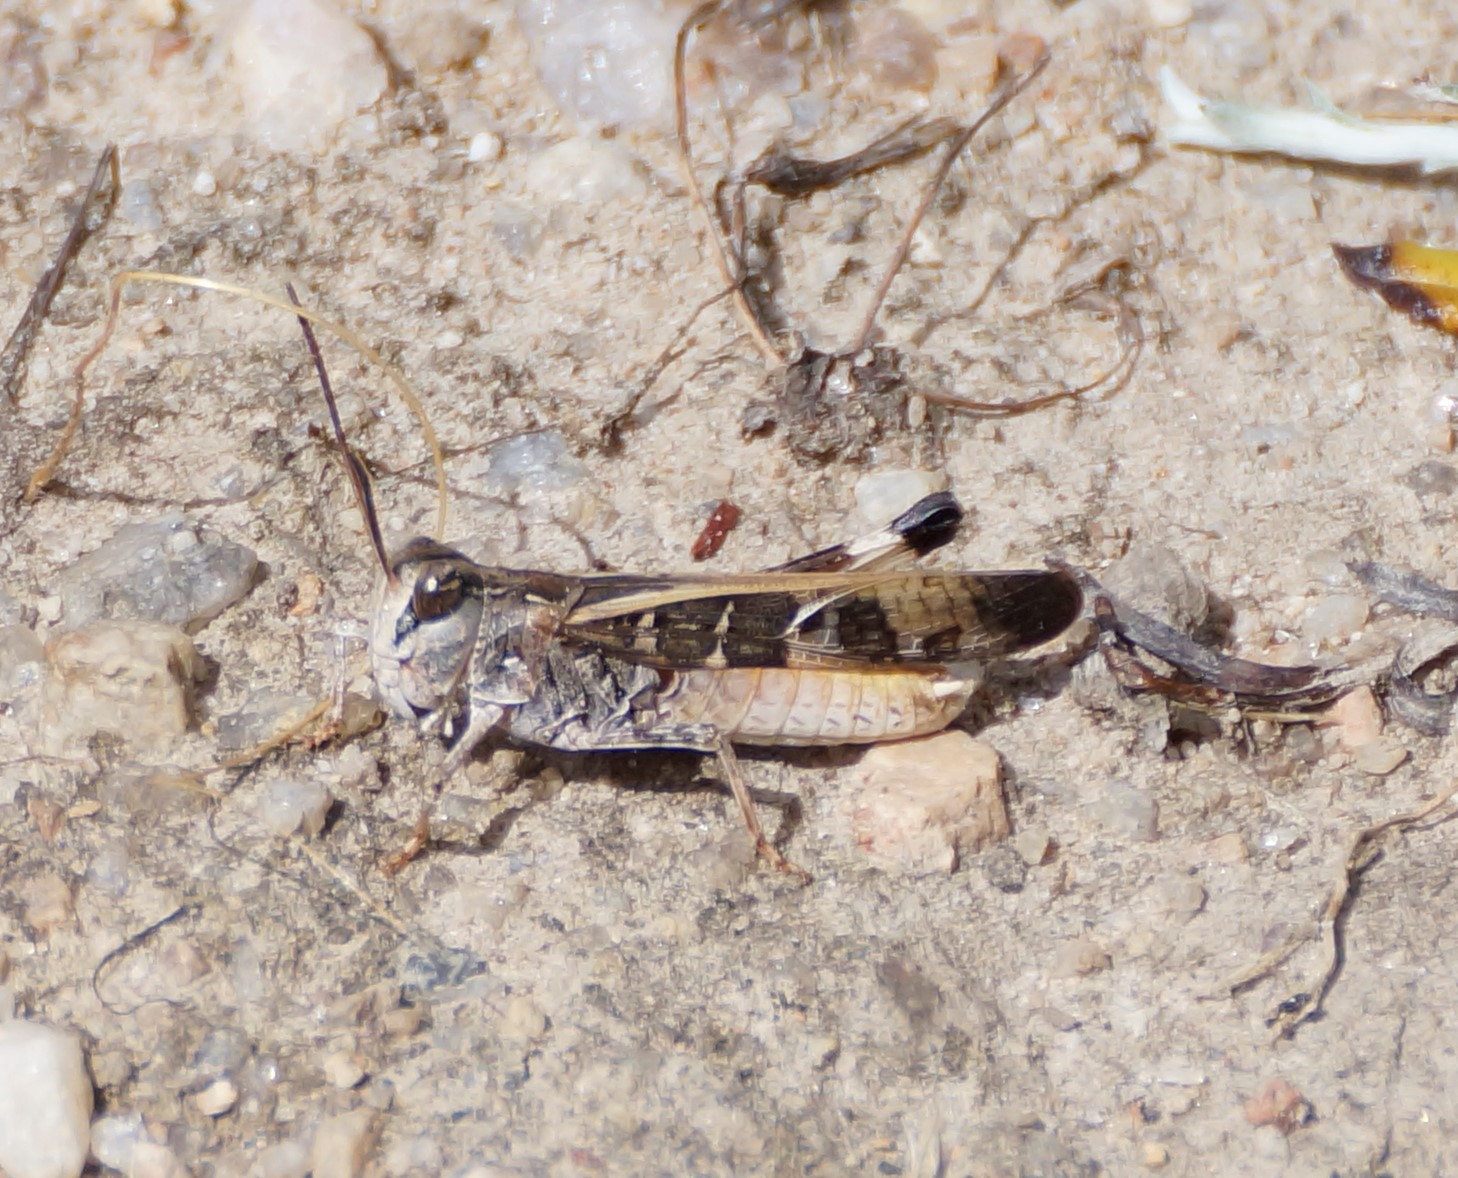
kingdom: Animalia
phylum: Arthropoda
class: Insecta
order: Orthoptera
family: Acrididae
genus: Oedaleus
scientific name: Oedaleus australis
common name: Eastern oedaleus
